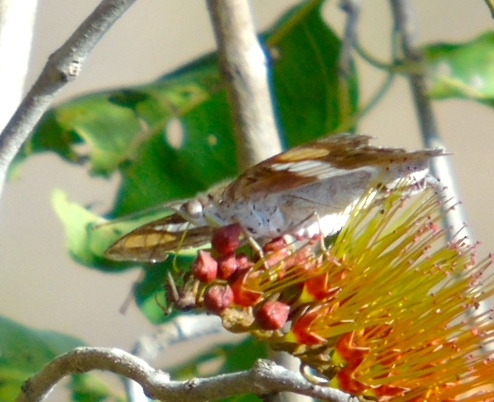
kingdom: Animalia
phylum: Arthropoda
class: Insecta
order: Lepidoptera
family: Nymphalidae
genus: Doxocopa
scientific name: Doxocopa
